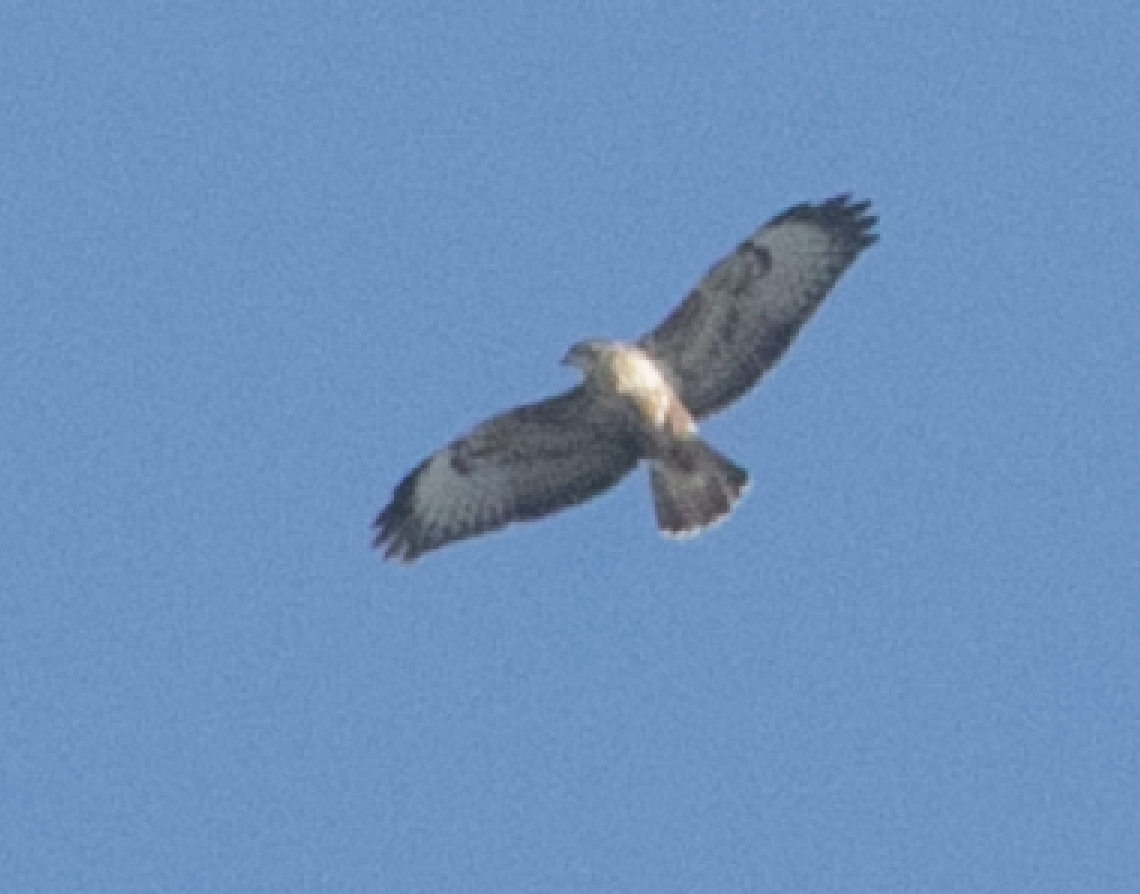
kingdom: Animalia
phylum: Chordata
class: Aves
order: Accipitriformes
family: Accipitridae
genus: Buteo
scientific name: Buteo buteo
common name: Common buzzard
